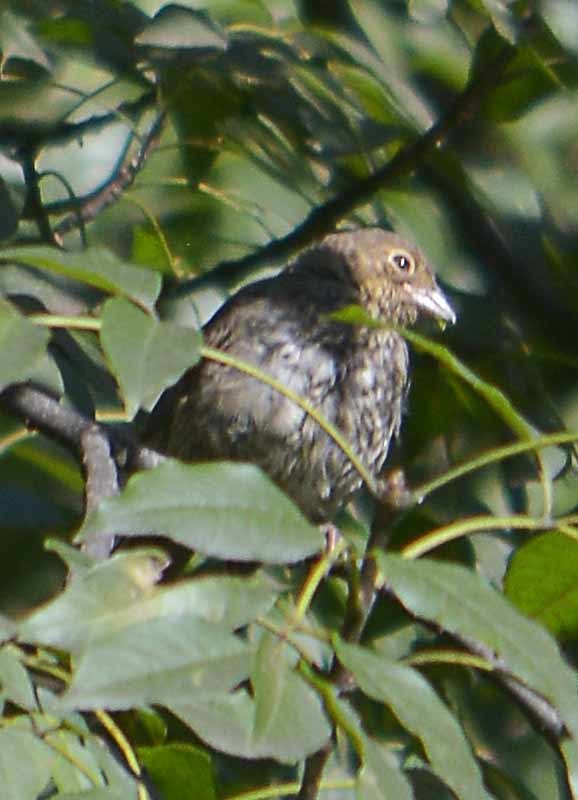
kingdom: Animalia
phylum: Chordata
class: Aves
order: Passeriformes
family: Passerellidae
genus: Melozone
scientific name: Melozone fusca
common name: Canyon towhee
